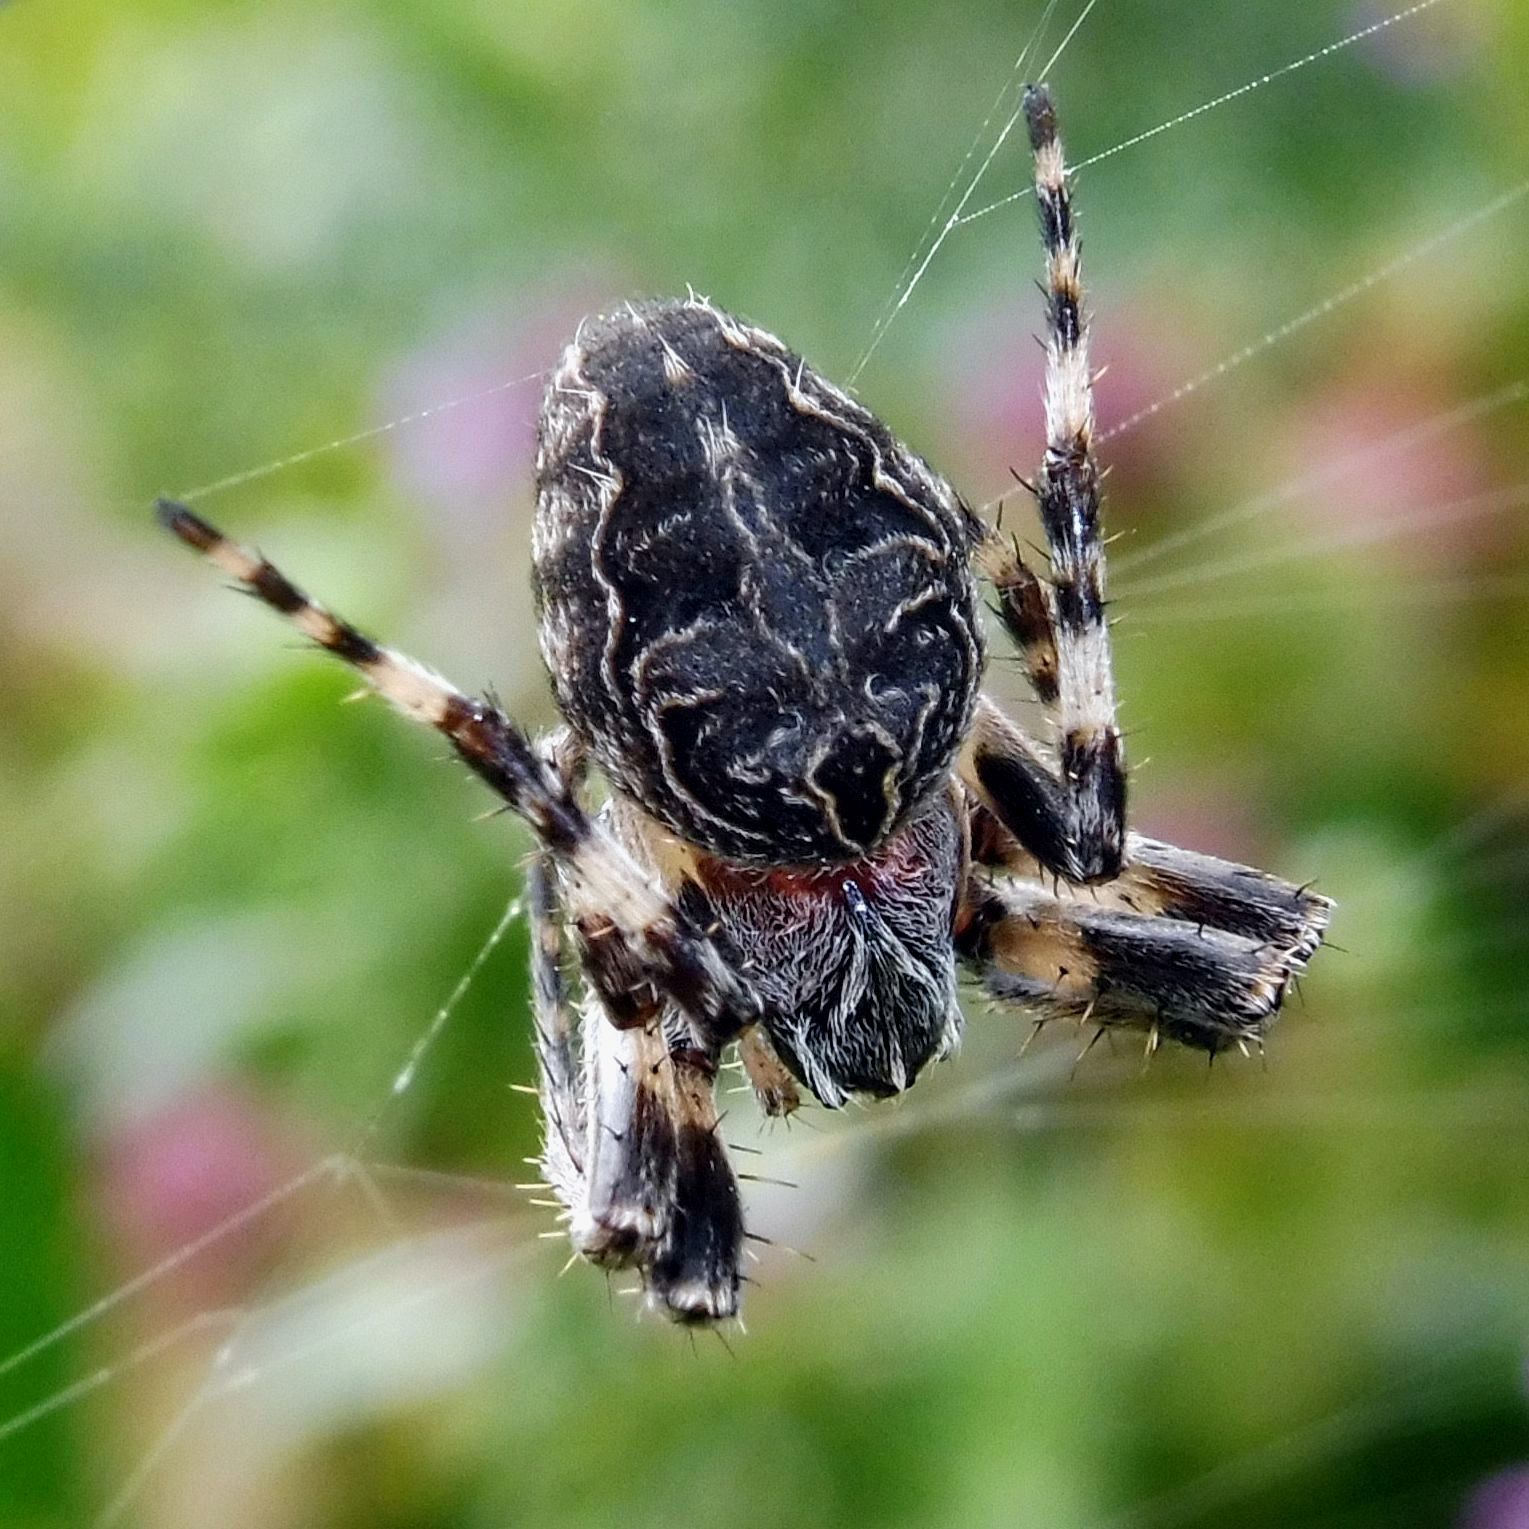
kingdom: Animalia
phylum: Arthropoda
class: Arachnida
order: Araneae
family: Araneidae
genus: Larinioides
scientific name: Larinioides sclopetarius
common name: Bridge orbweaver
